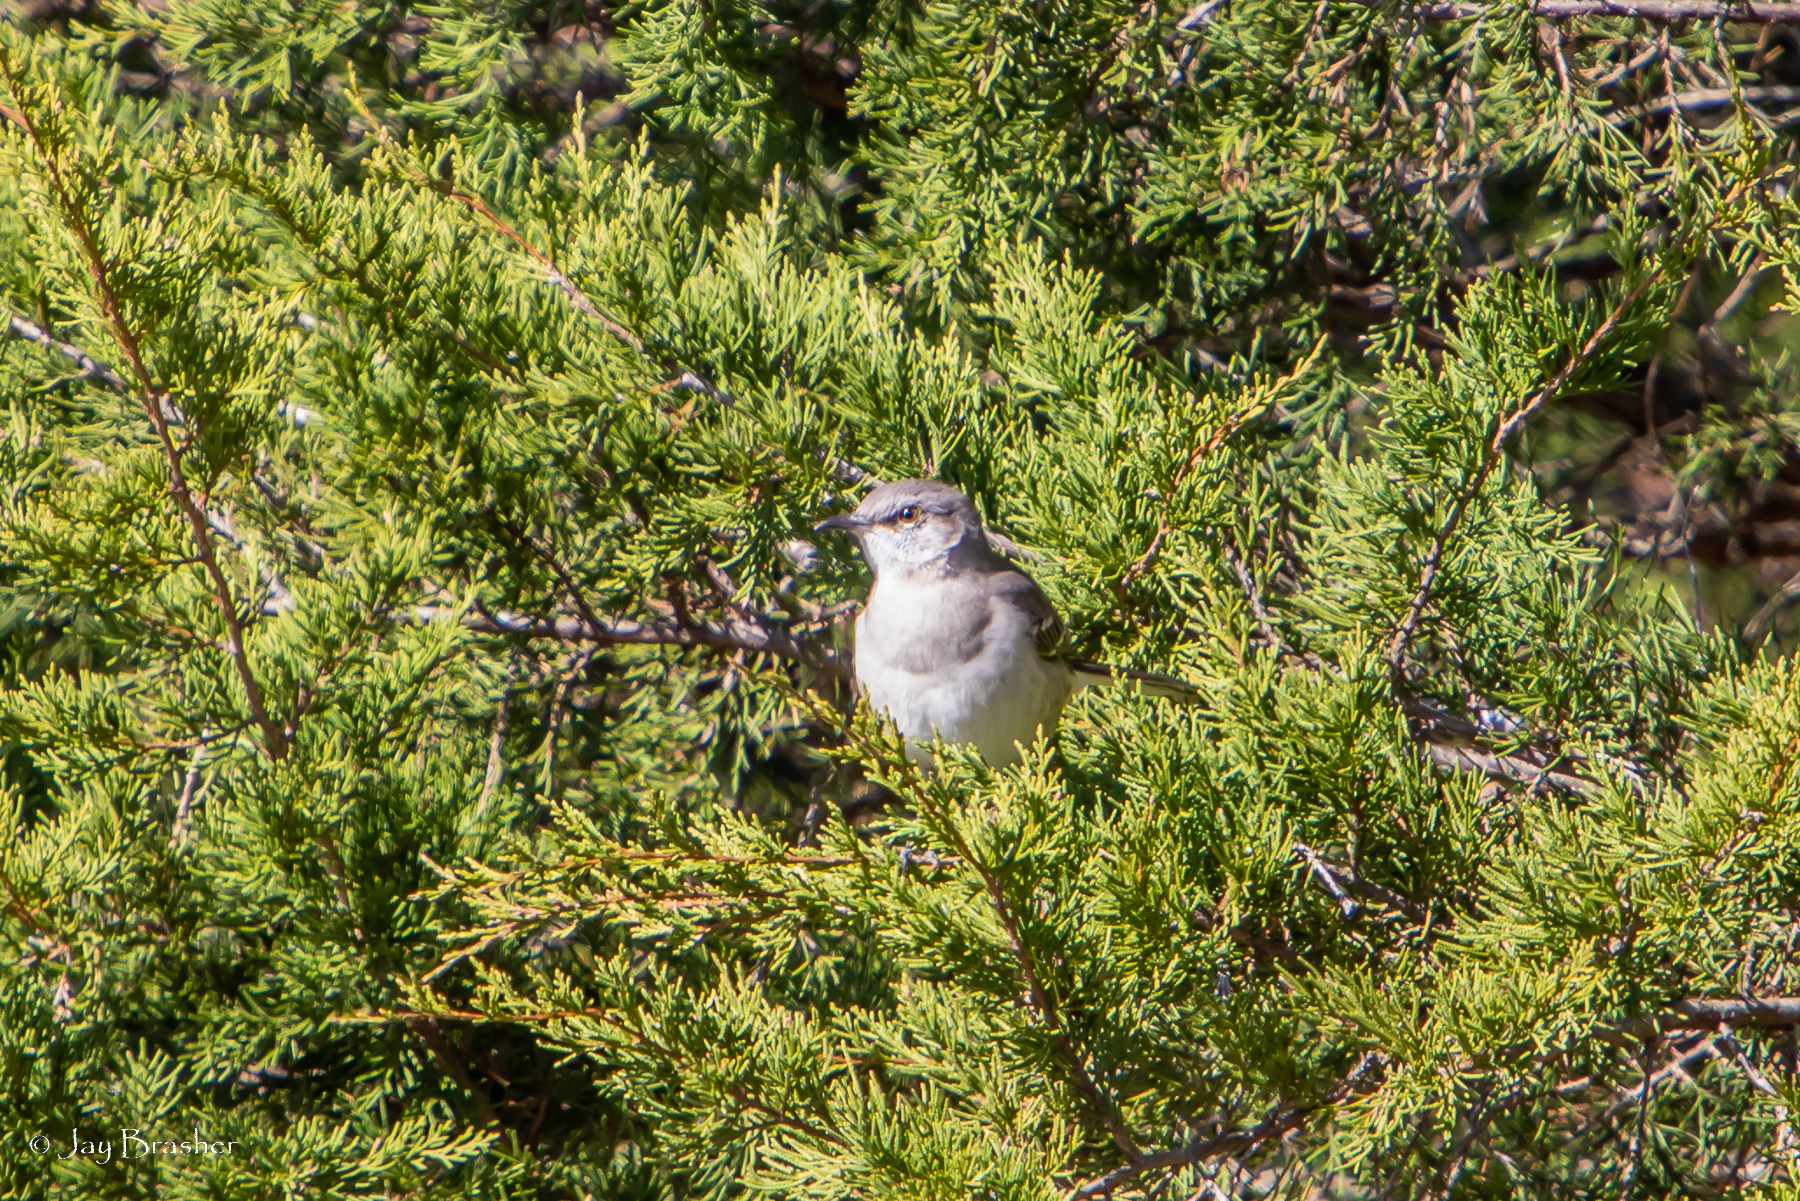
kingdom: Animalia
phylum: Chordata
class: Aves
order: Passeriformes
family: Mimidae
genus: Mimus
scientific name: Mimus polyglottos
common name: Northern mockingbird
